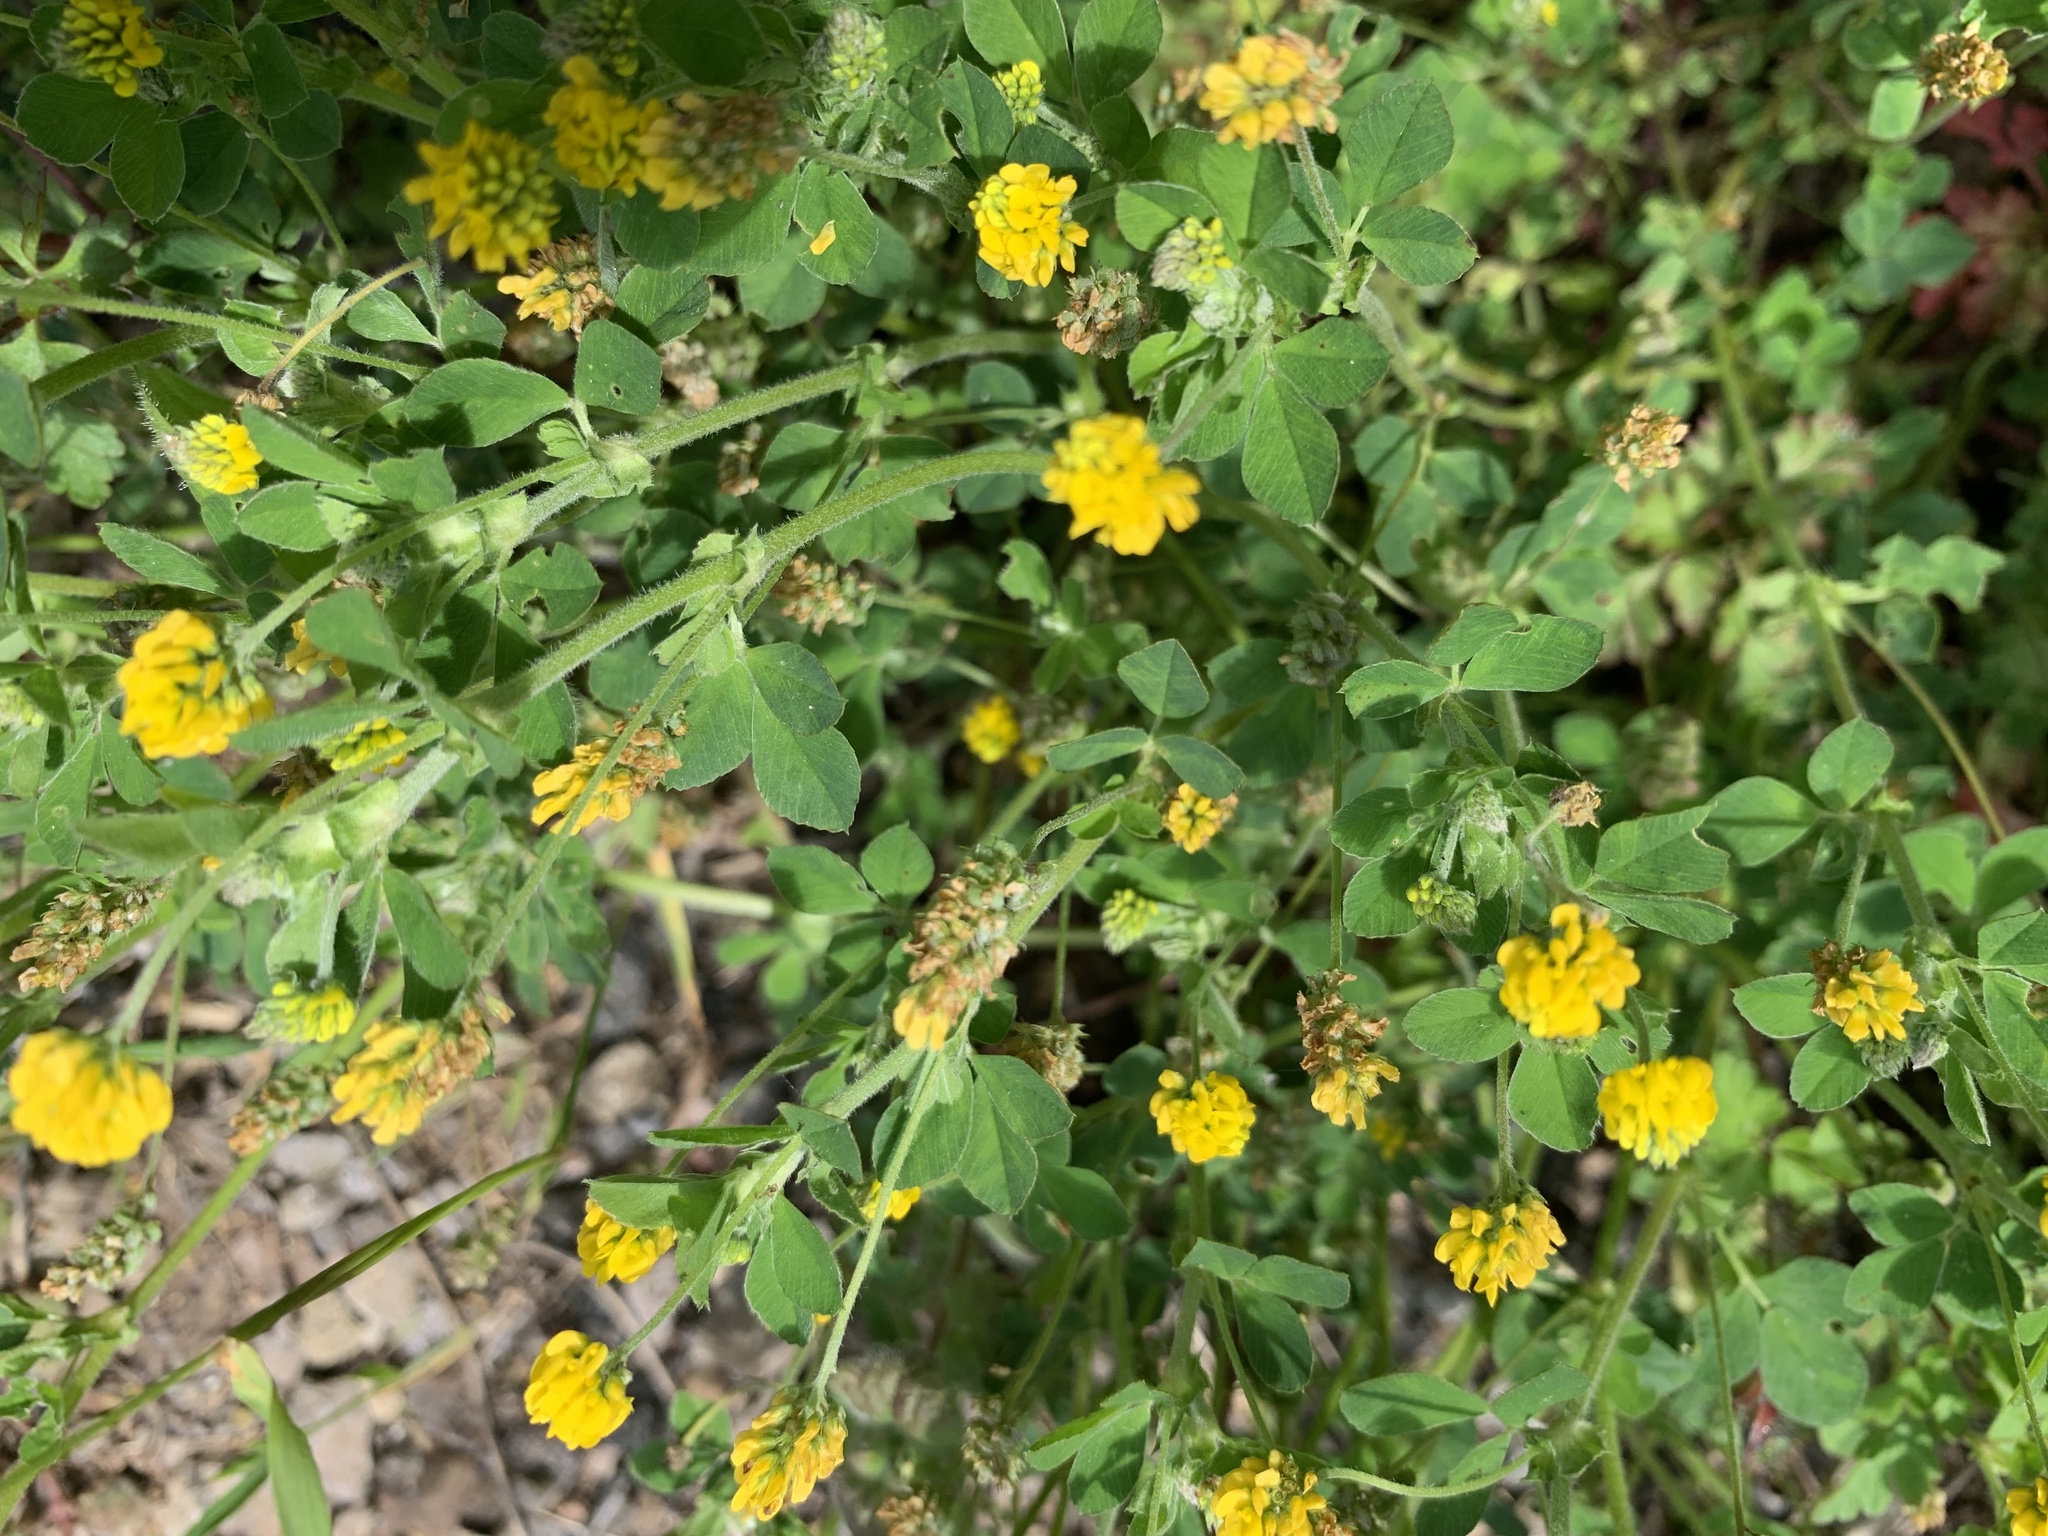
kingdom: Plantae
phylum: Tracheophyta
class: Magnoliopsida
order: Fabales
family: Fabaceae
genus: Medicago
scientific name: Medicago lupulina
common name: Black medick
